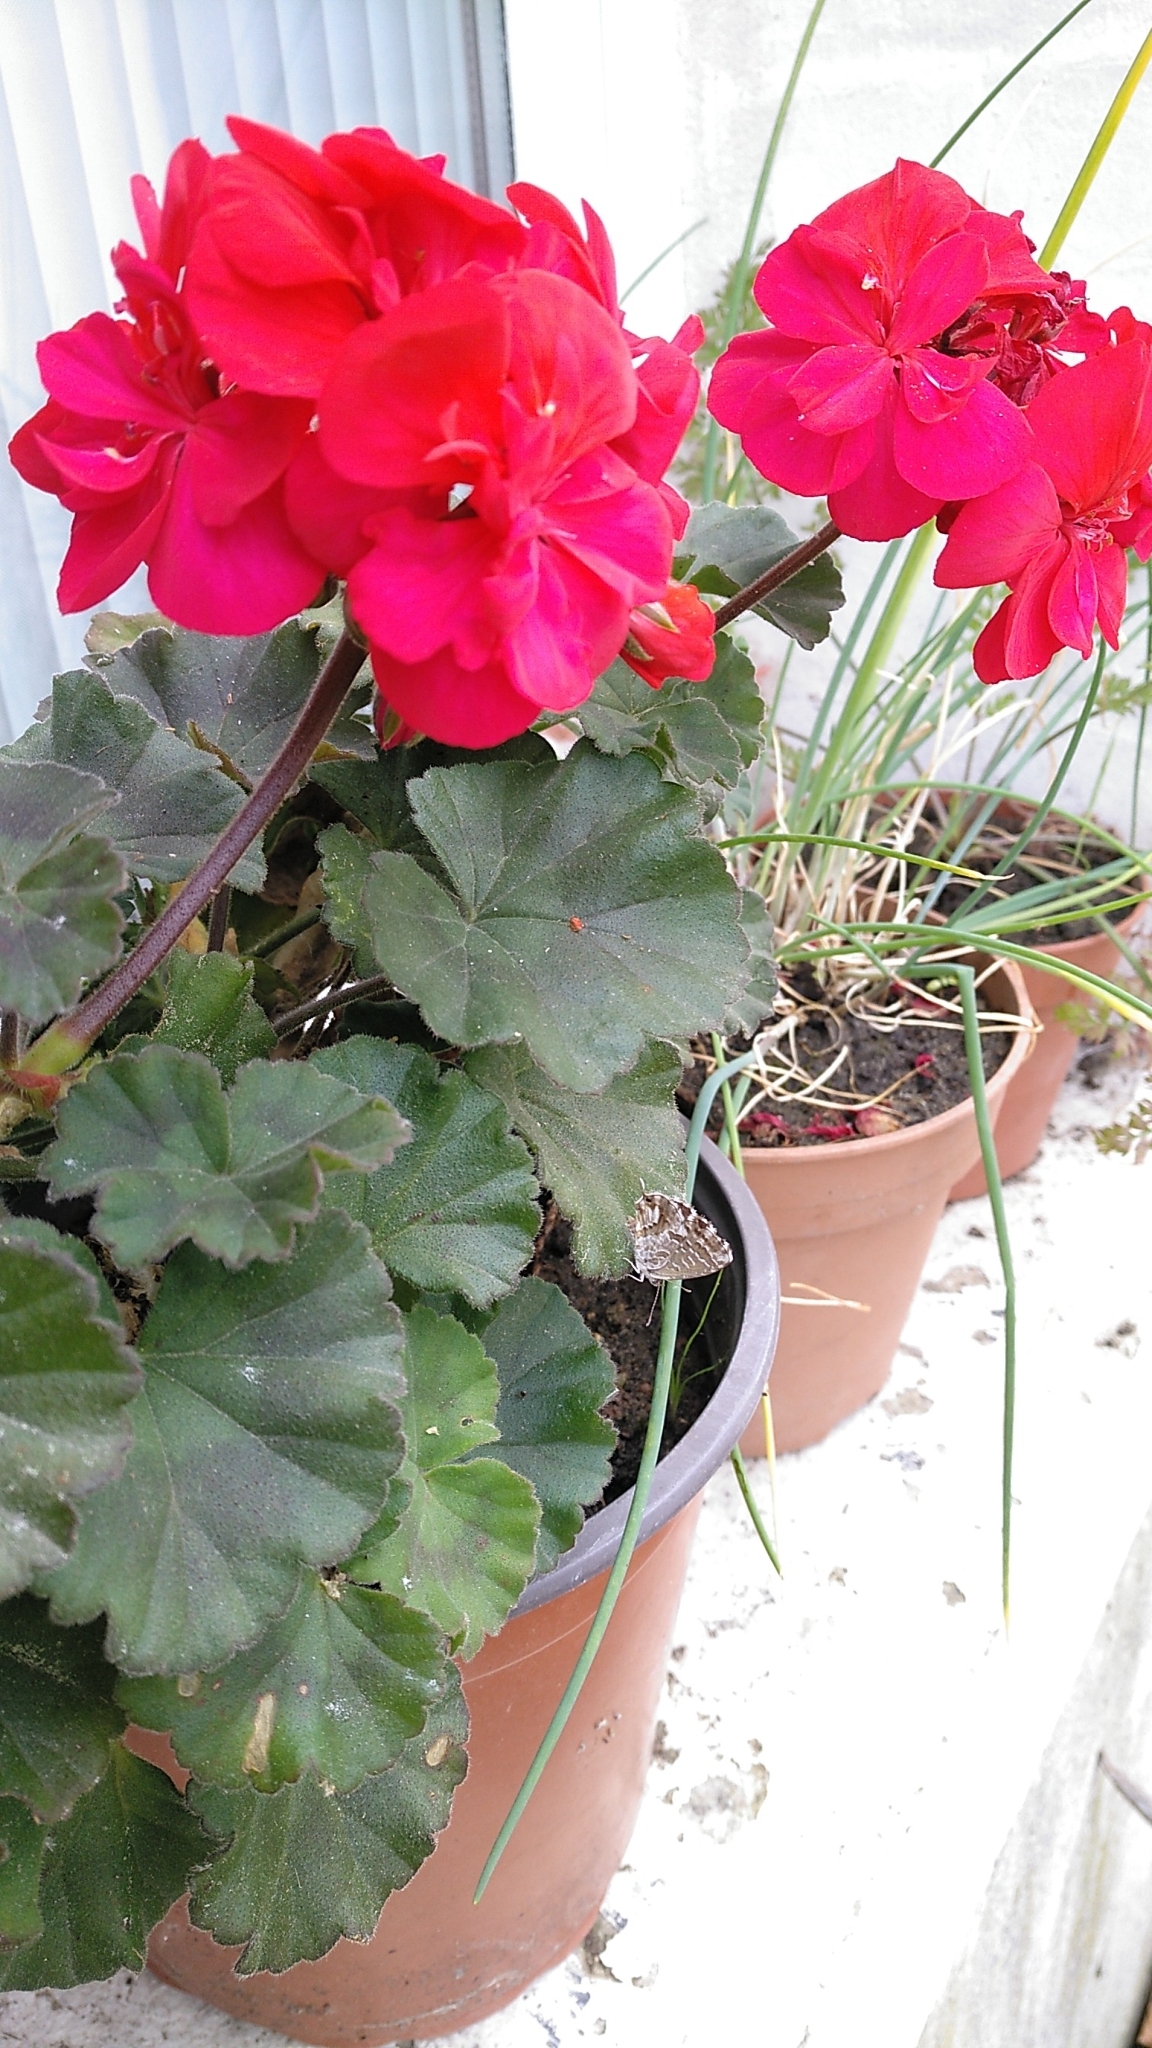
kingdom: Animalia
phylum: Arthropoda
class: Insecta
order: Lepidoptera
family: Lycaenidae
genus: Cacyreus
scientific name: Cacyreus marshalli
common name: Geranium bronze
